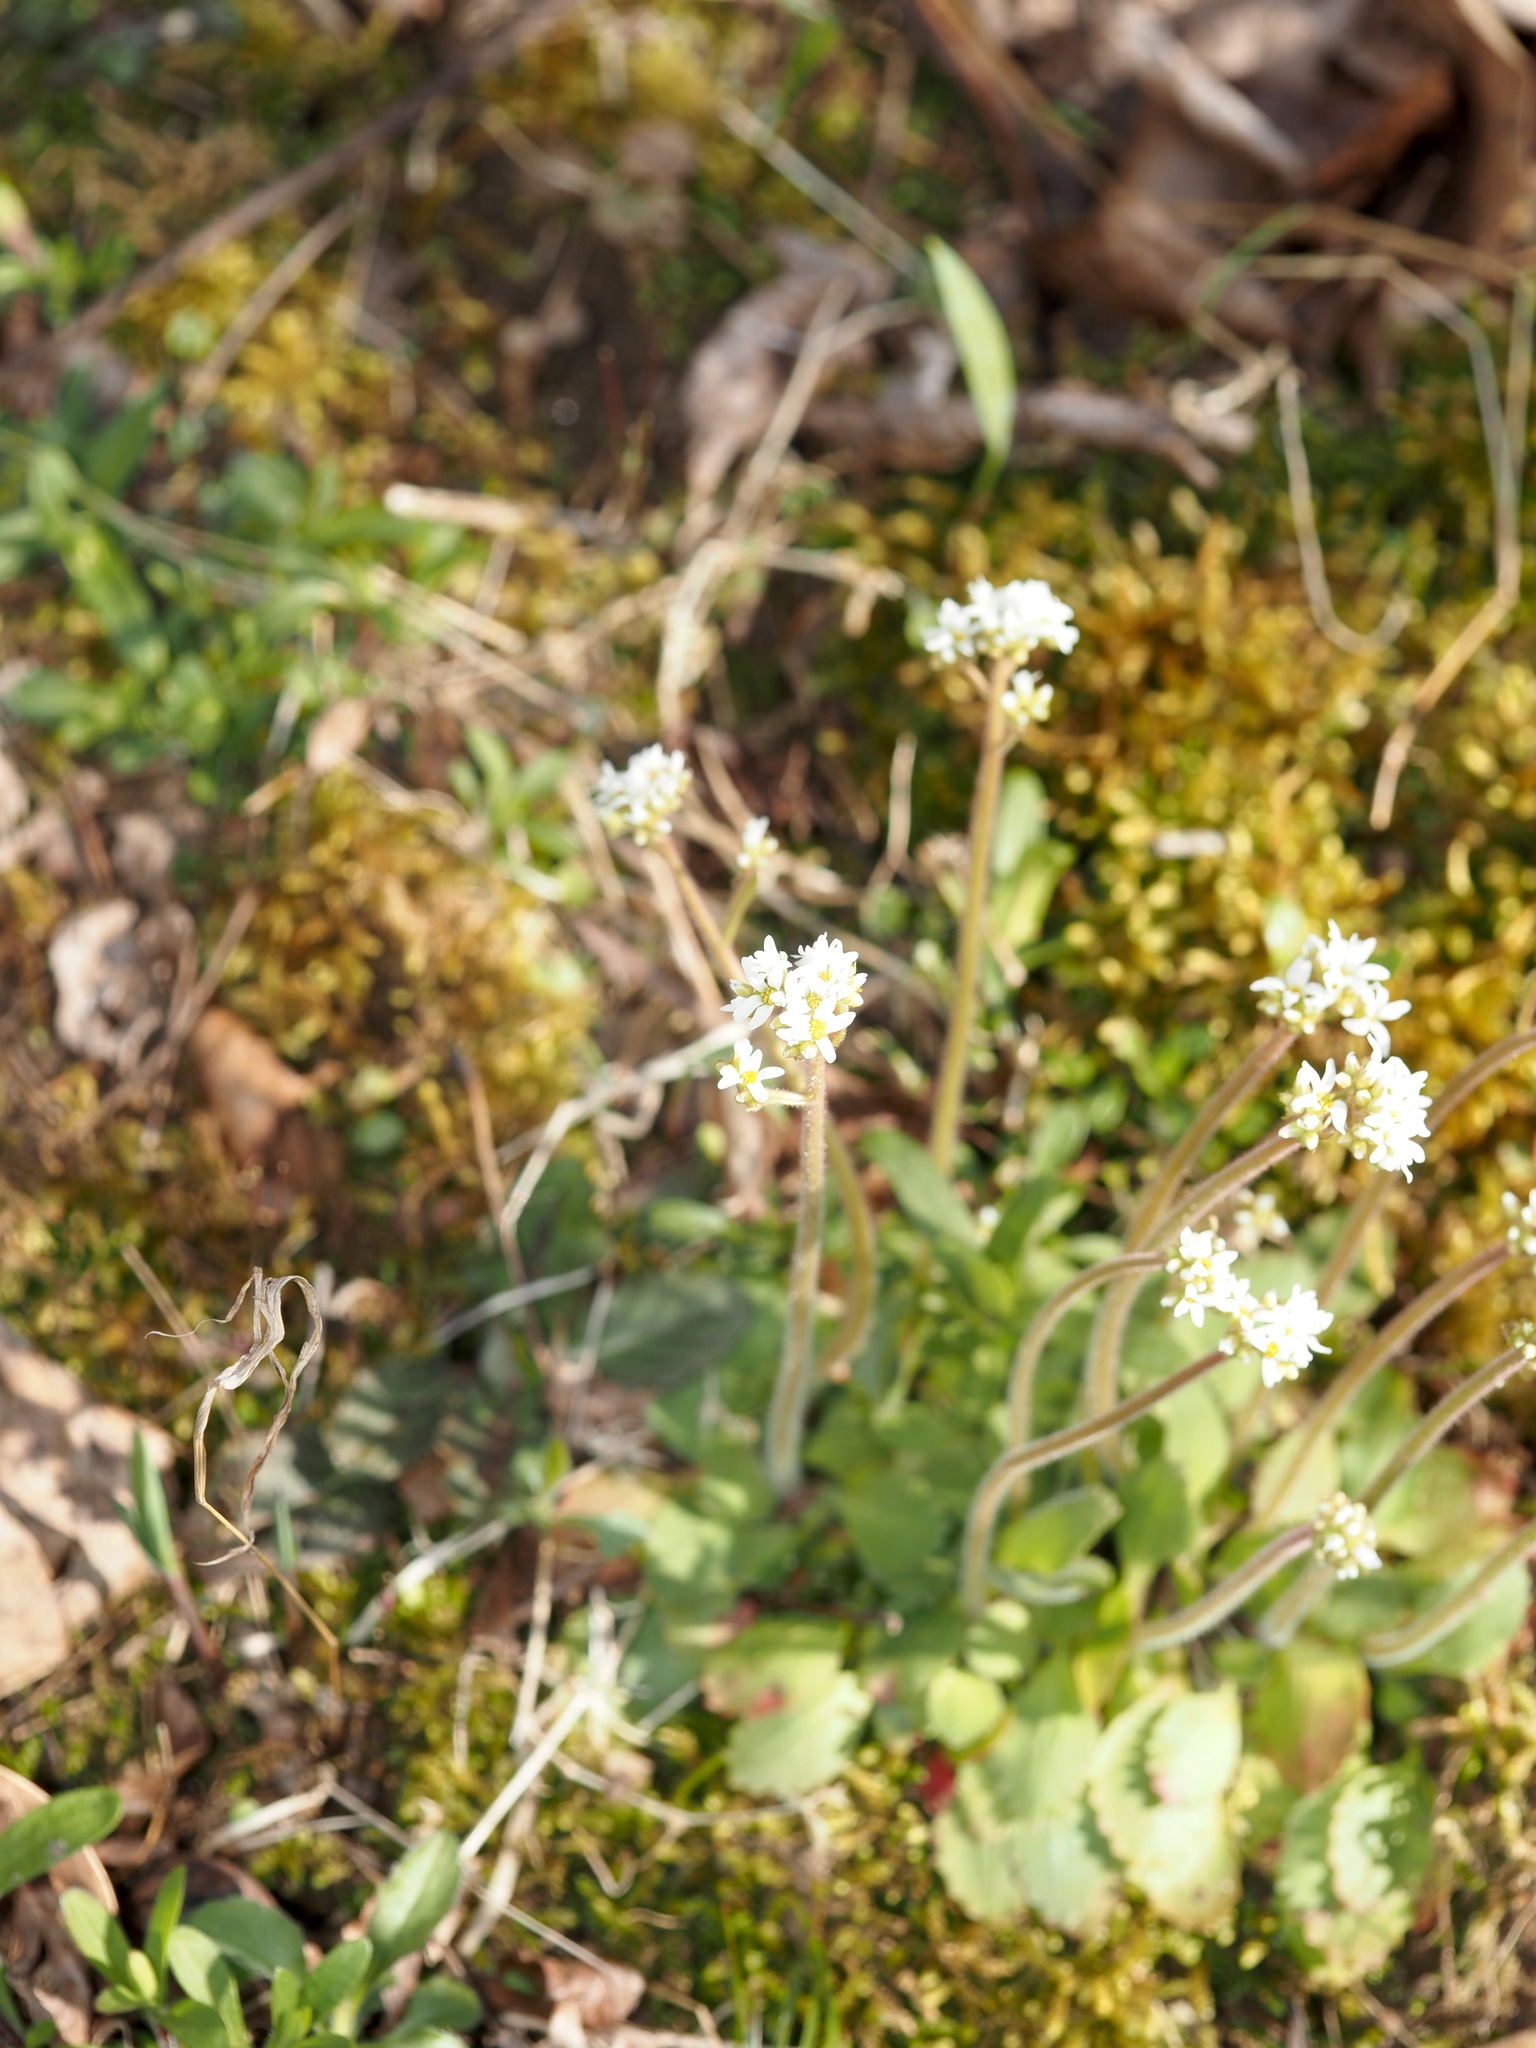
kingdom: Plantae
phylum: Tracheophyta
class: Magnoliopsida
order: Saxifragales
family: Saxifragaceae
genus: Micranthes
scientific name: Micranthes virginiensis
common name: Early saxifrage
